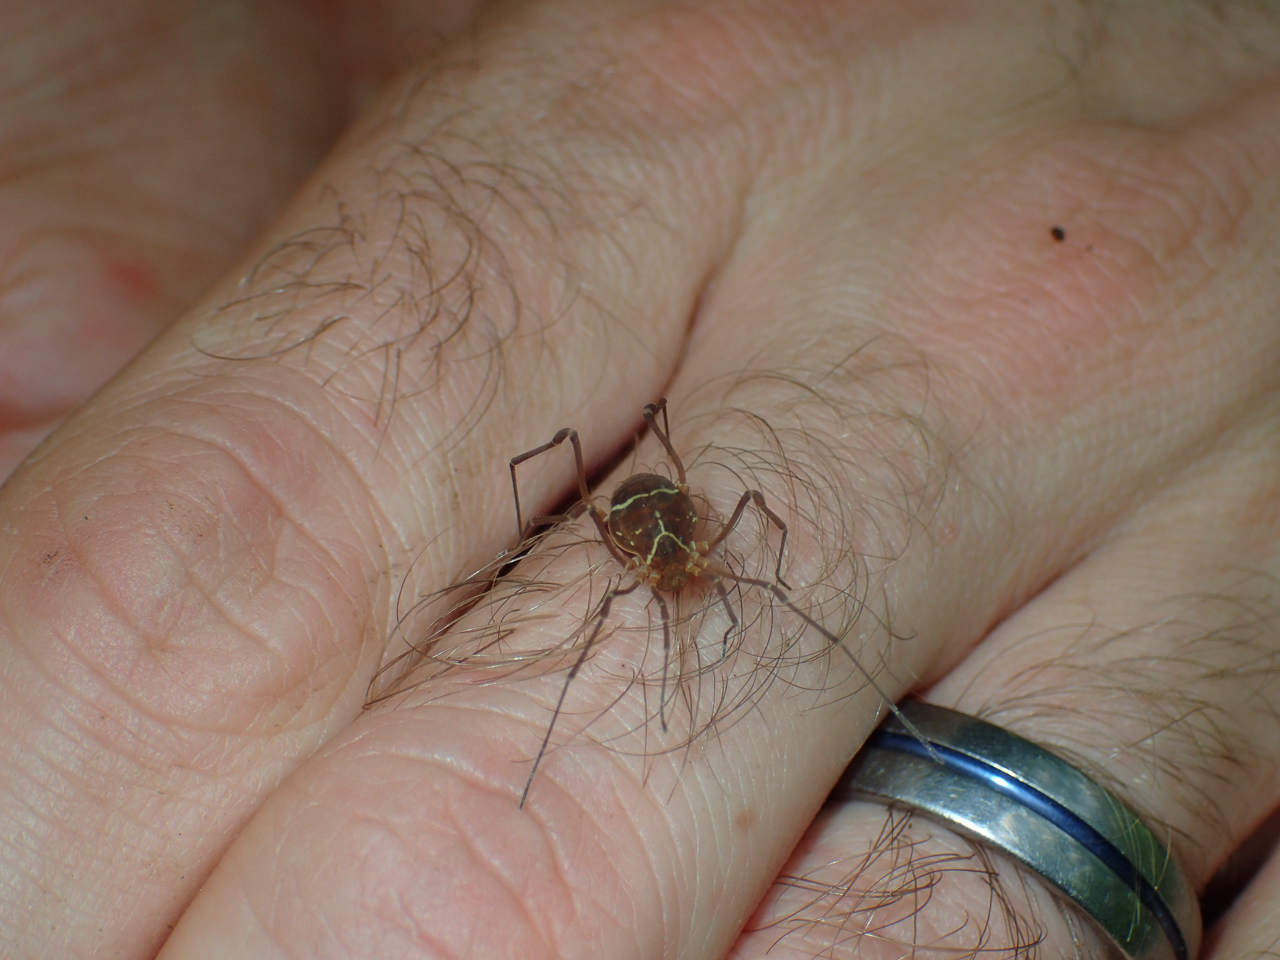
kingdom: Animalia
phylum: Arthropoda
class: Arachnida
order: Opiliones
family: Cosmetidae
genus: Libitioides
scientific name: Libitioides sayi
